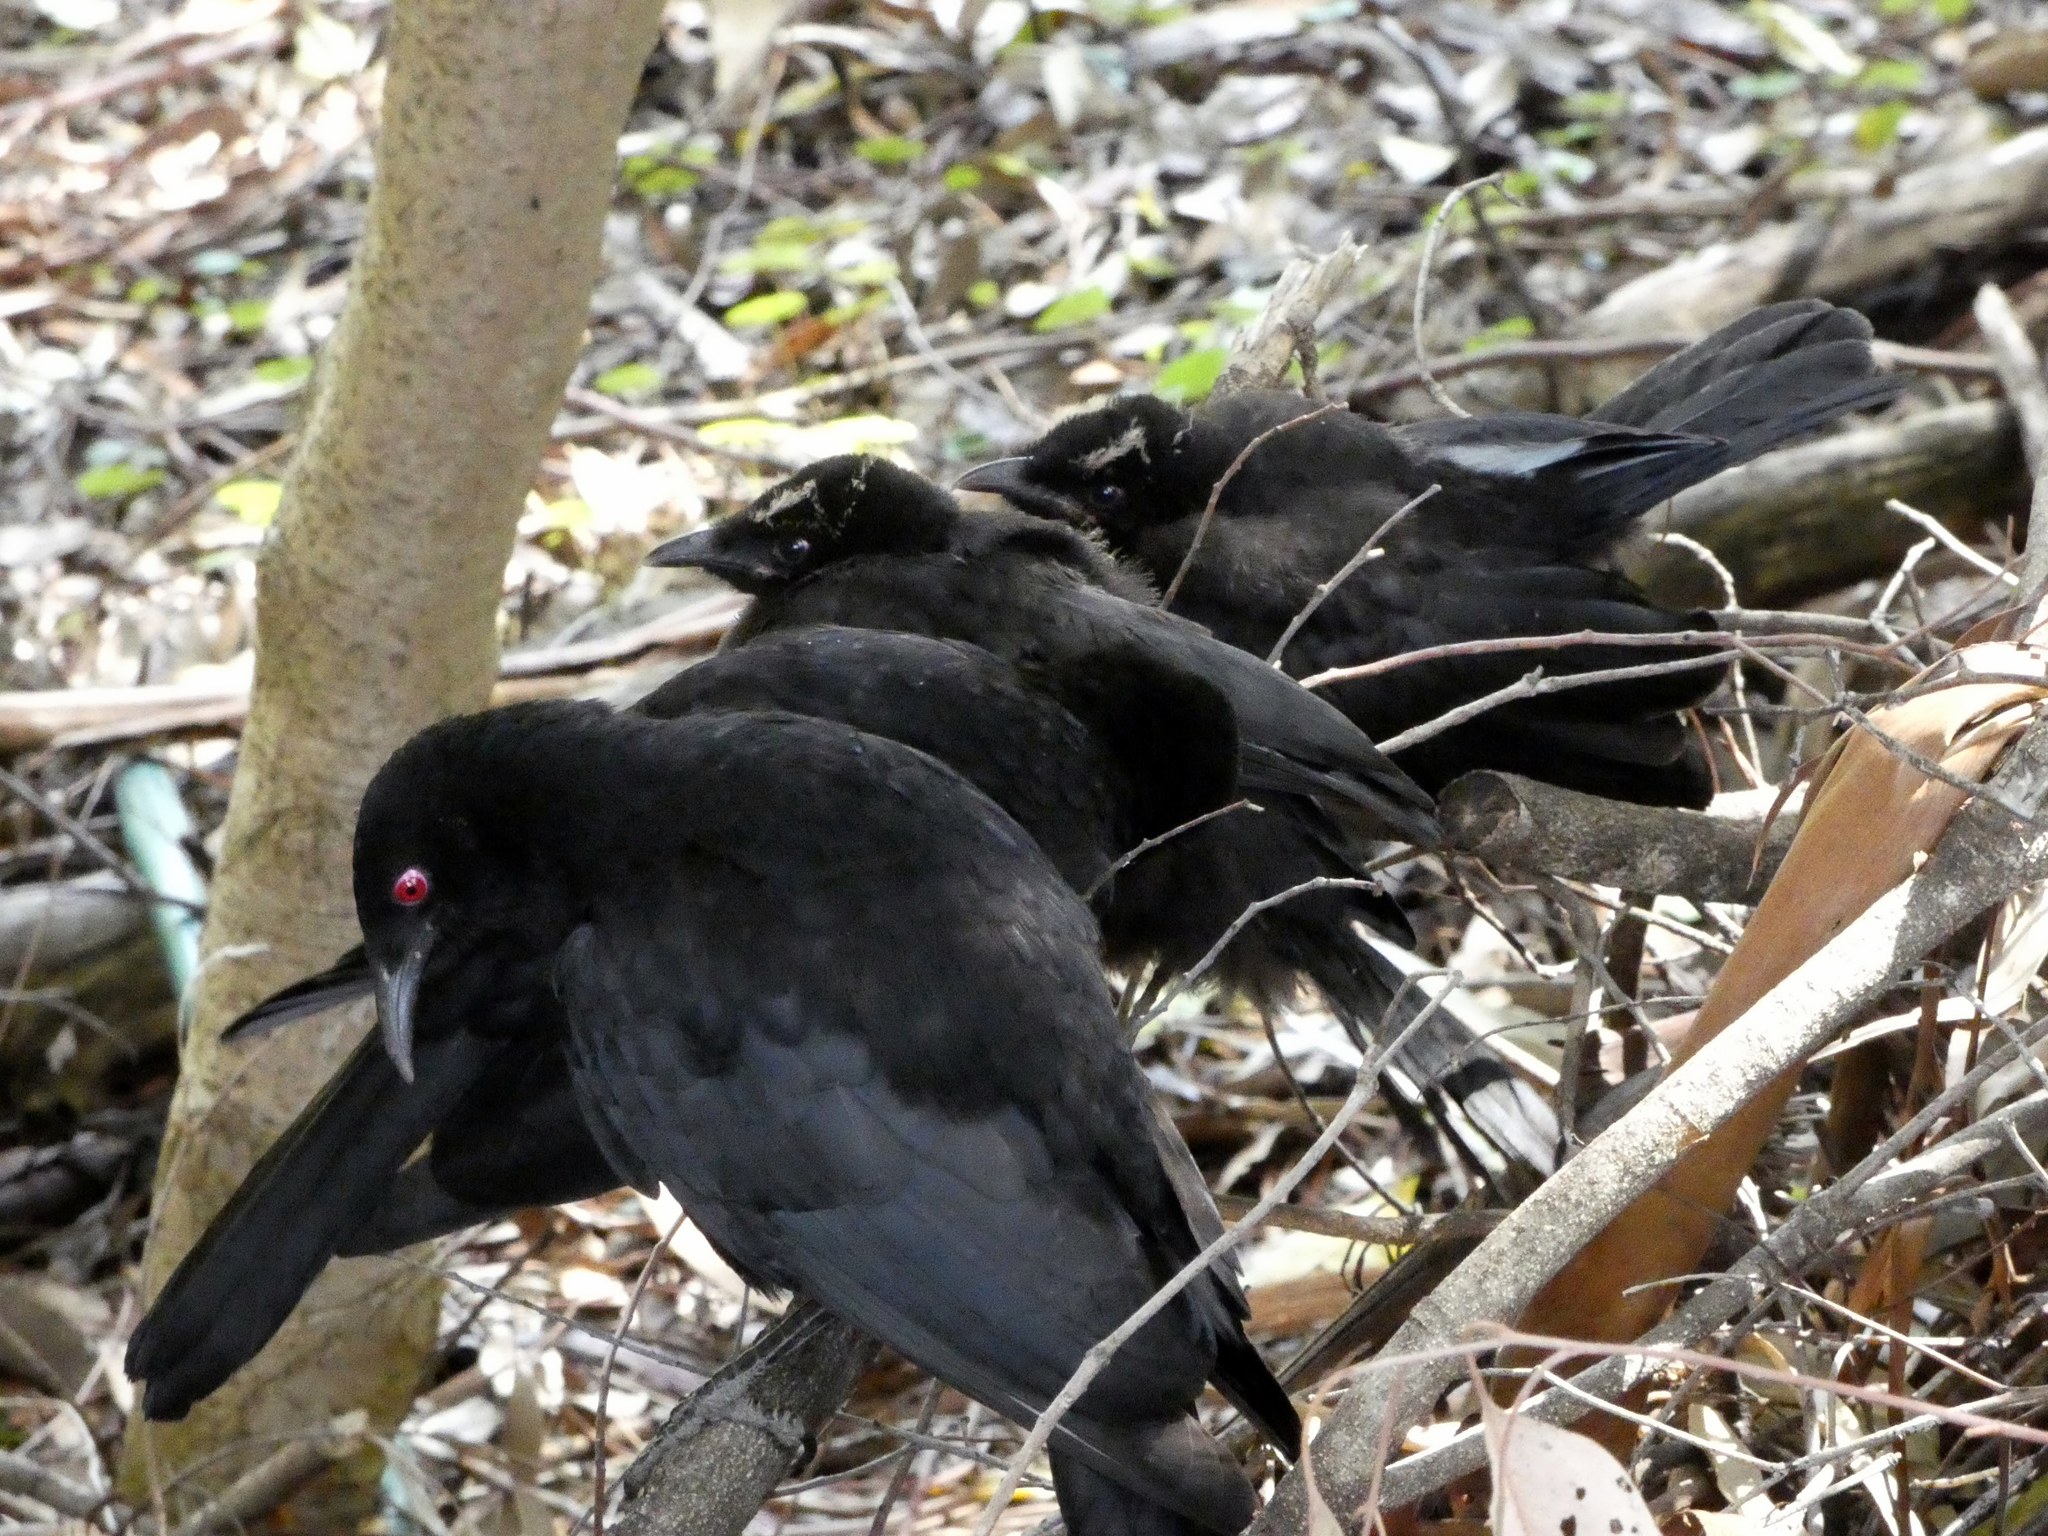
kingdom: Animalia
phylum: Chordata
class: Aves
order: Passeriformes
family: Corcoracidae
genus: Corcorax
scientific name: Corcorax melanoramphos
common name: White-winged chough
